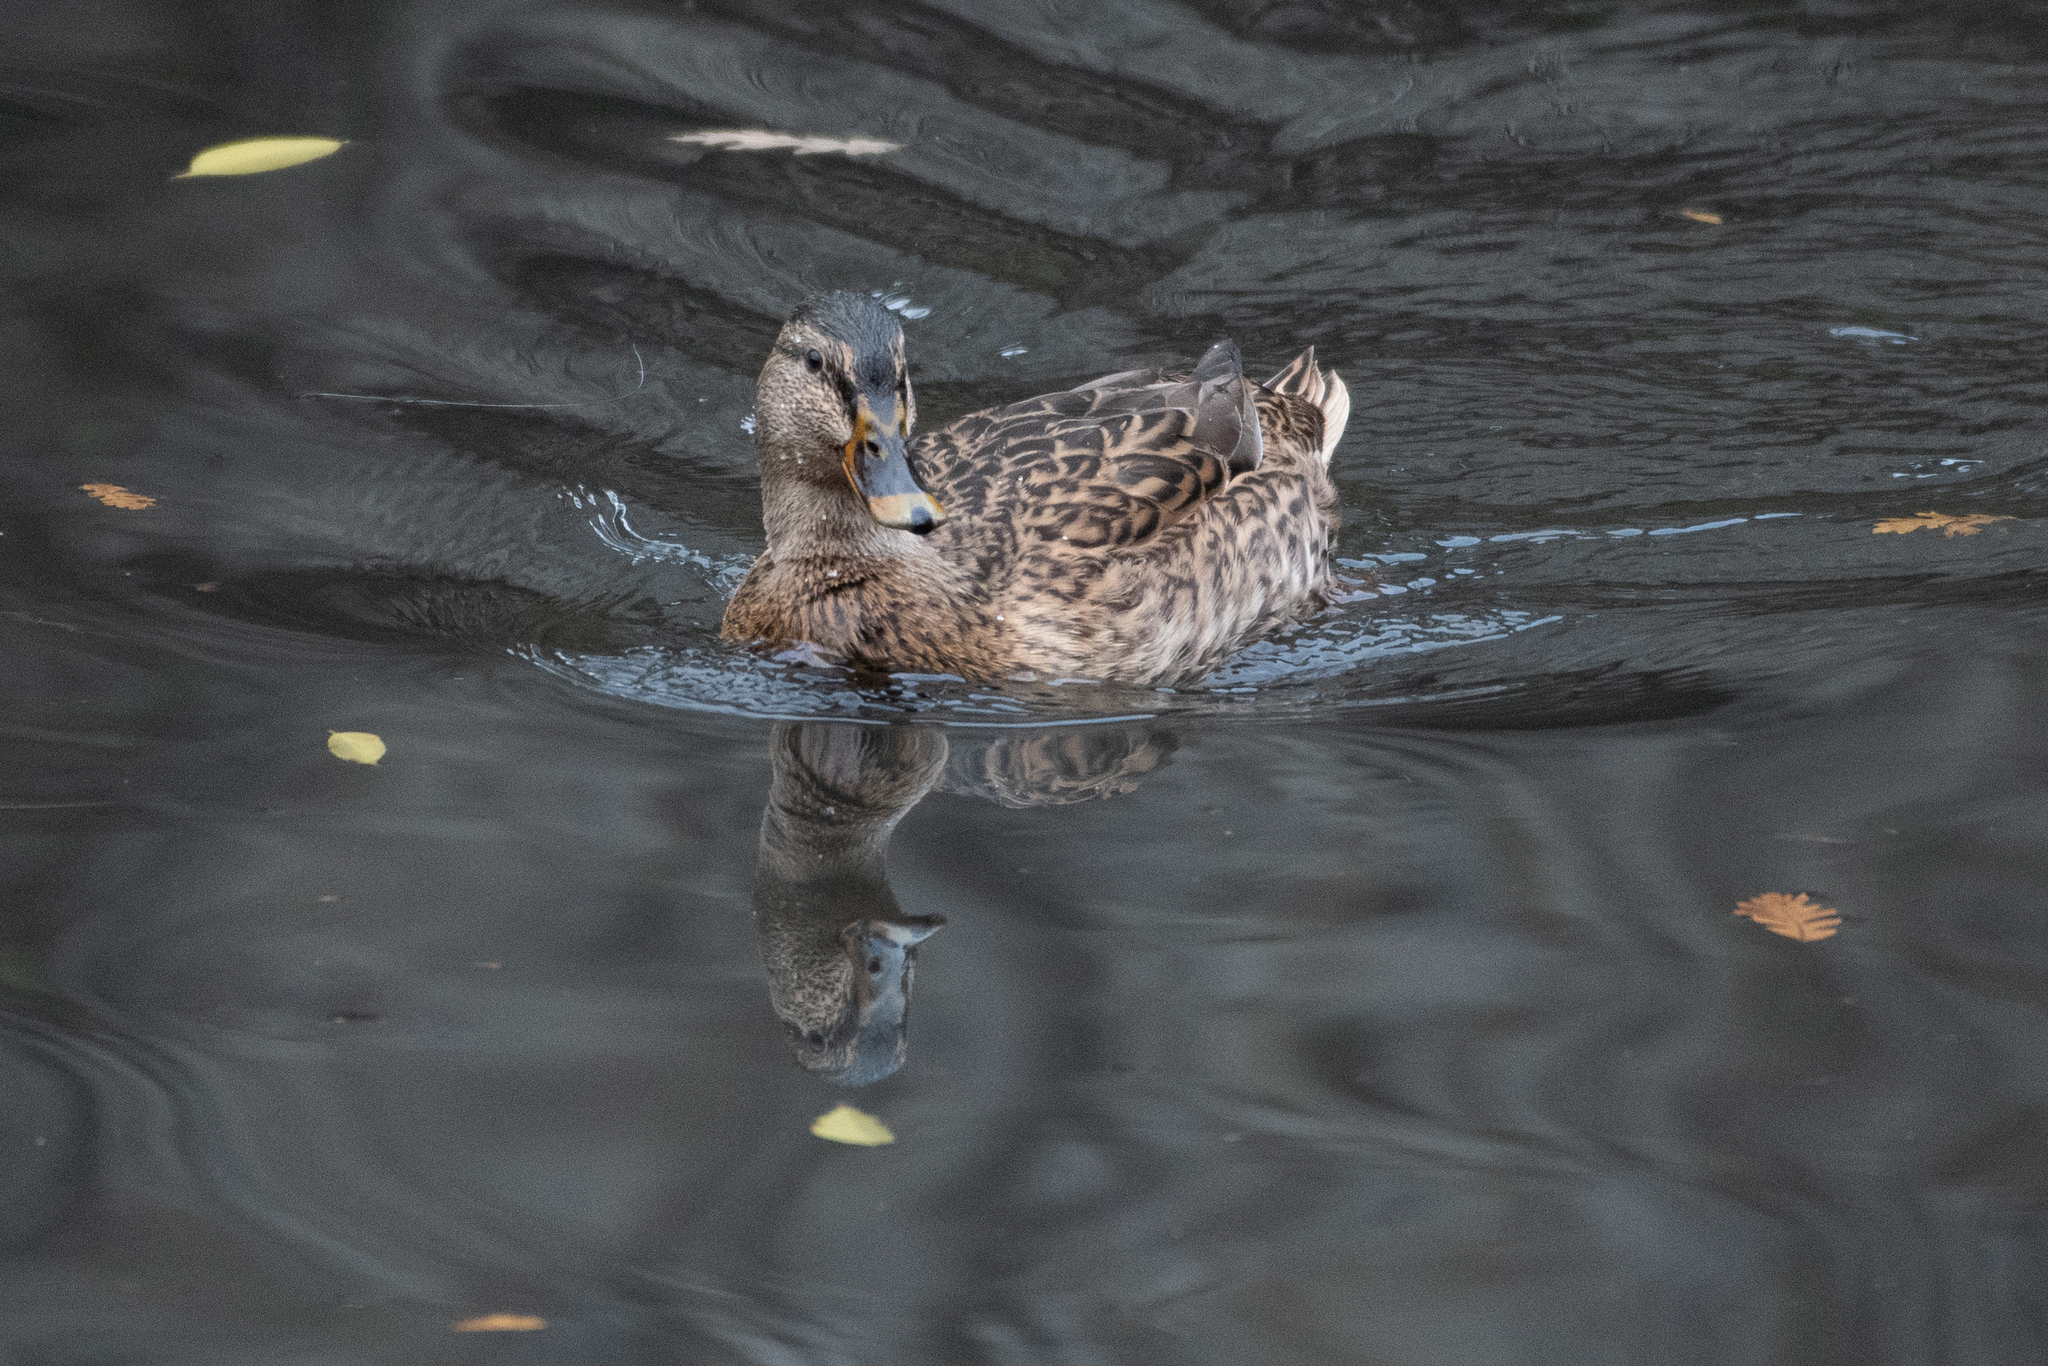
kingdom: Animalia
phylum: Chordata
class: Aves
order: Anseriformes
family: Anatidae
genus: Anas
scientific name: Anas platyrhynchos
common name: Mallard
